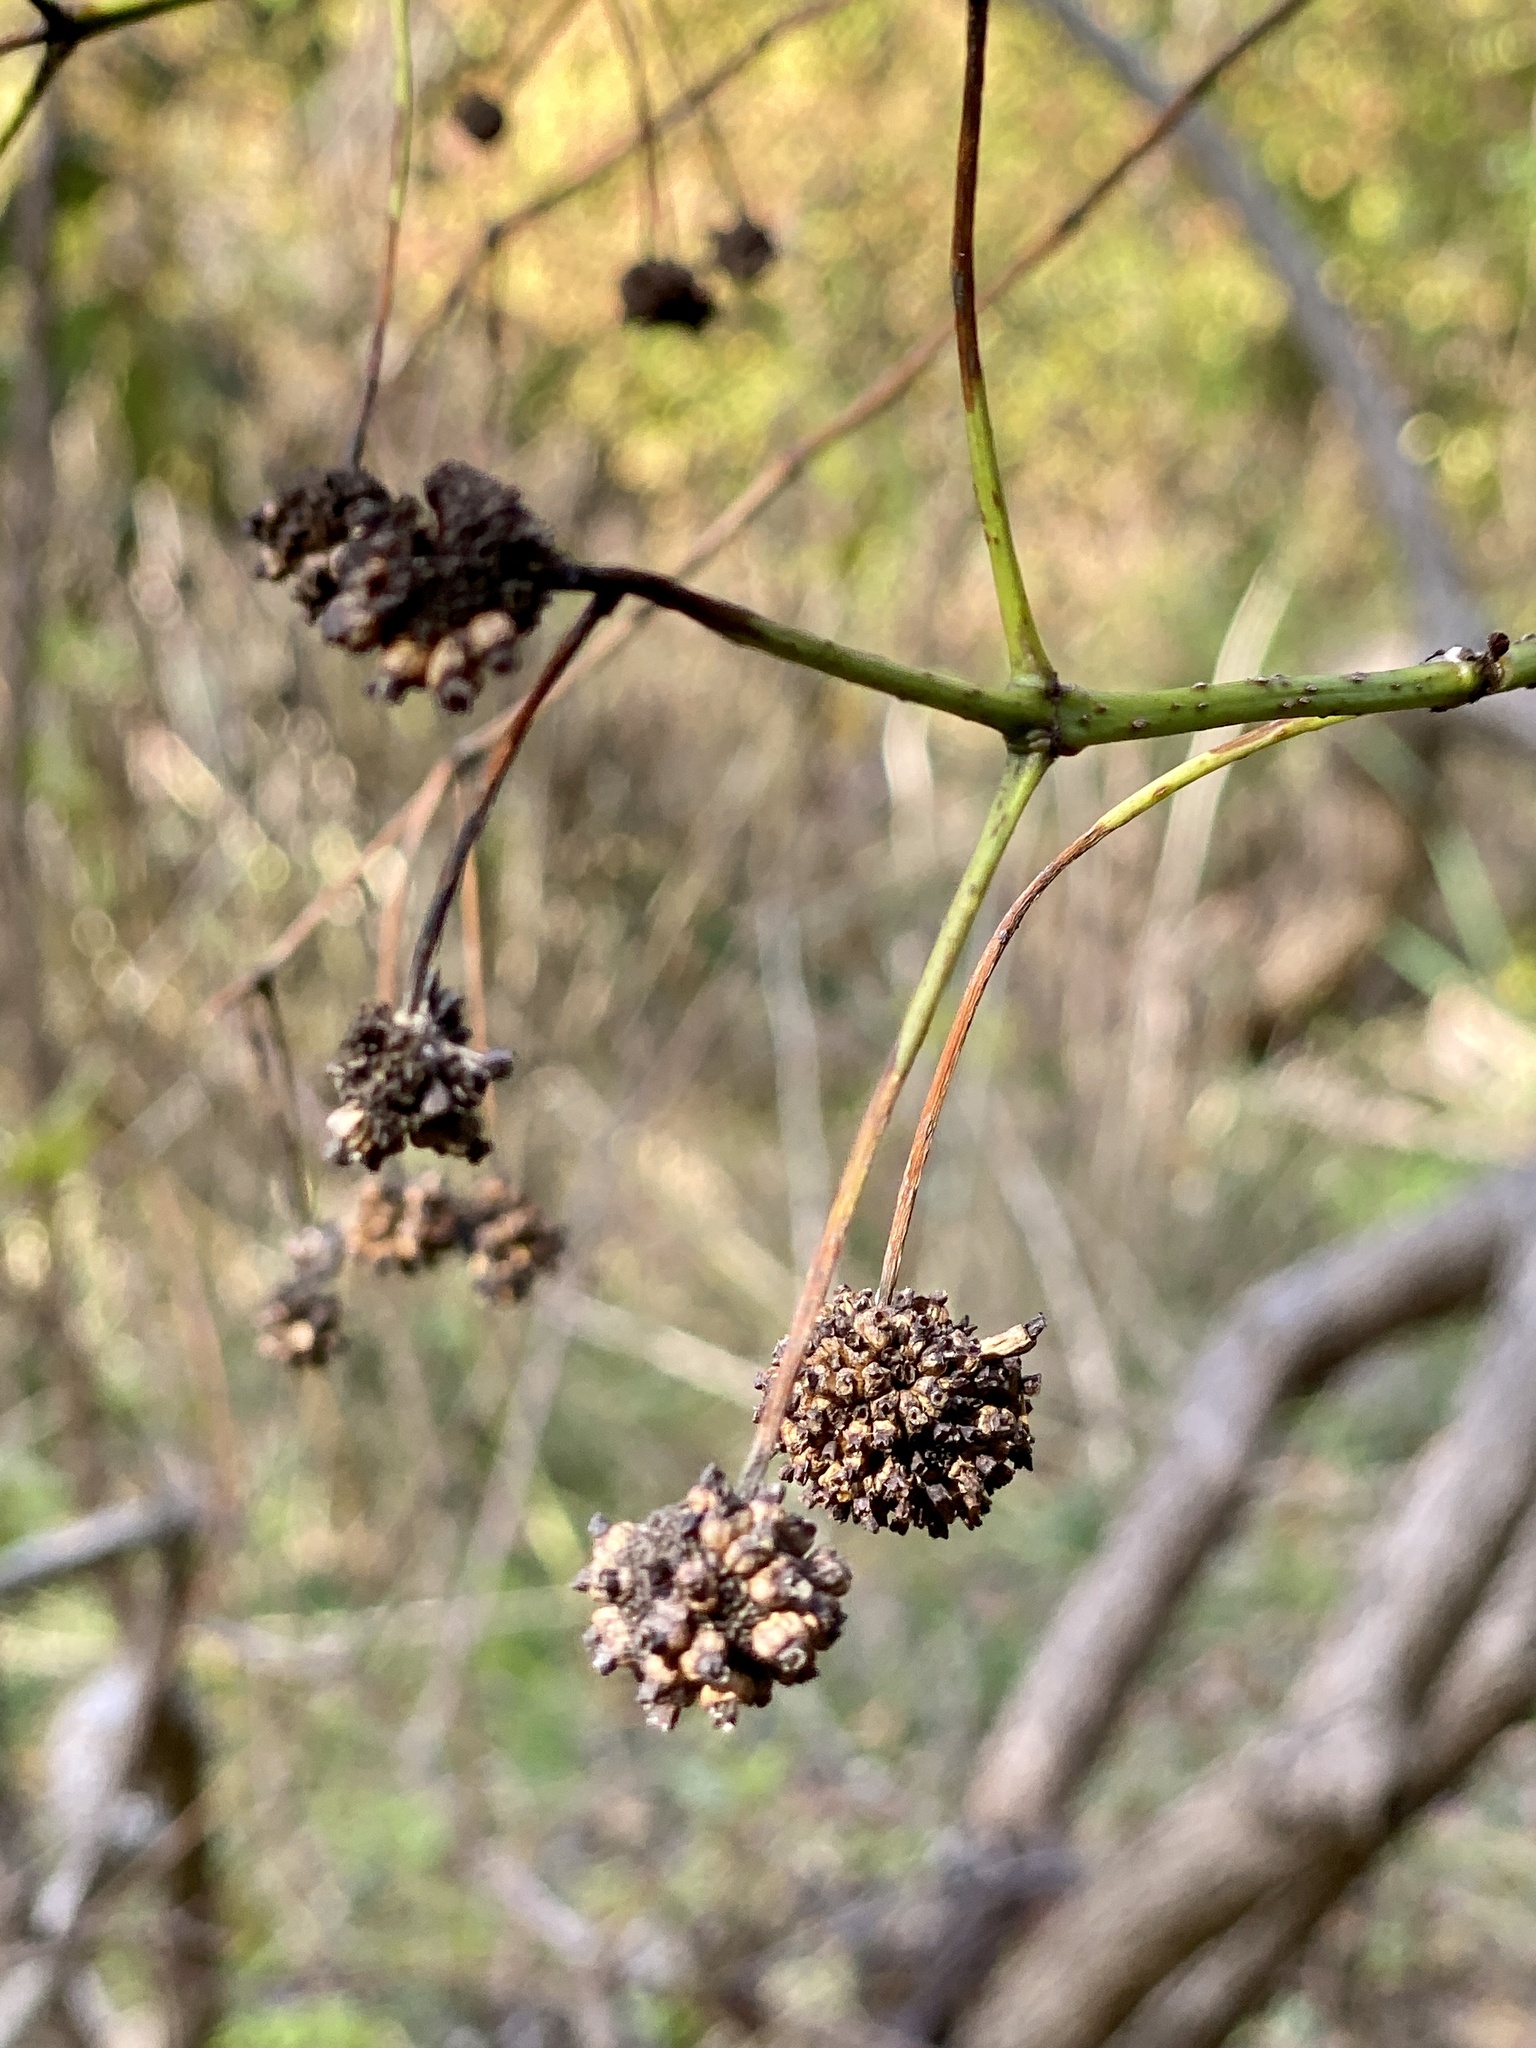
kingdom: Plantae
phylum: Tracheophyta
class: Magnoliopsida
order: Gentianales
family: Rubiaceae
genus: Cephalanthus
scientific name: Cephalanthus occidentalis
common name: Button-willow
